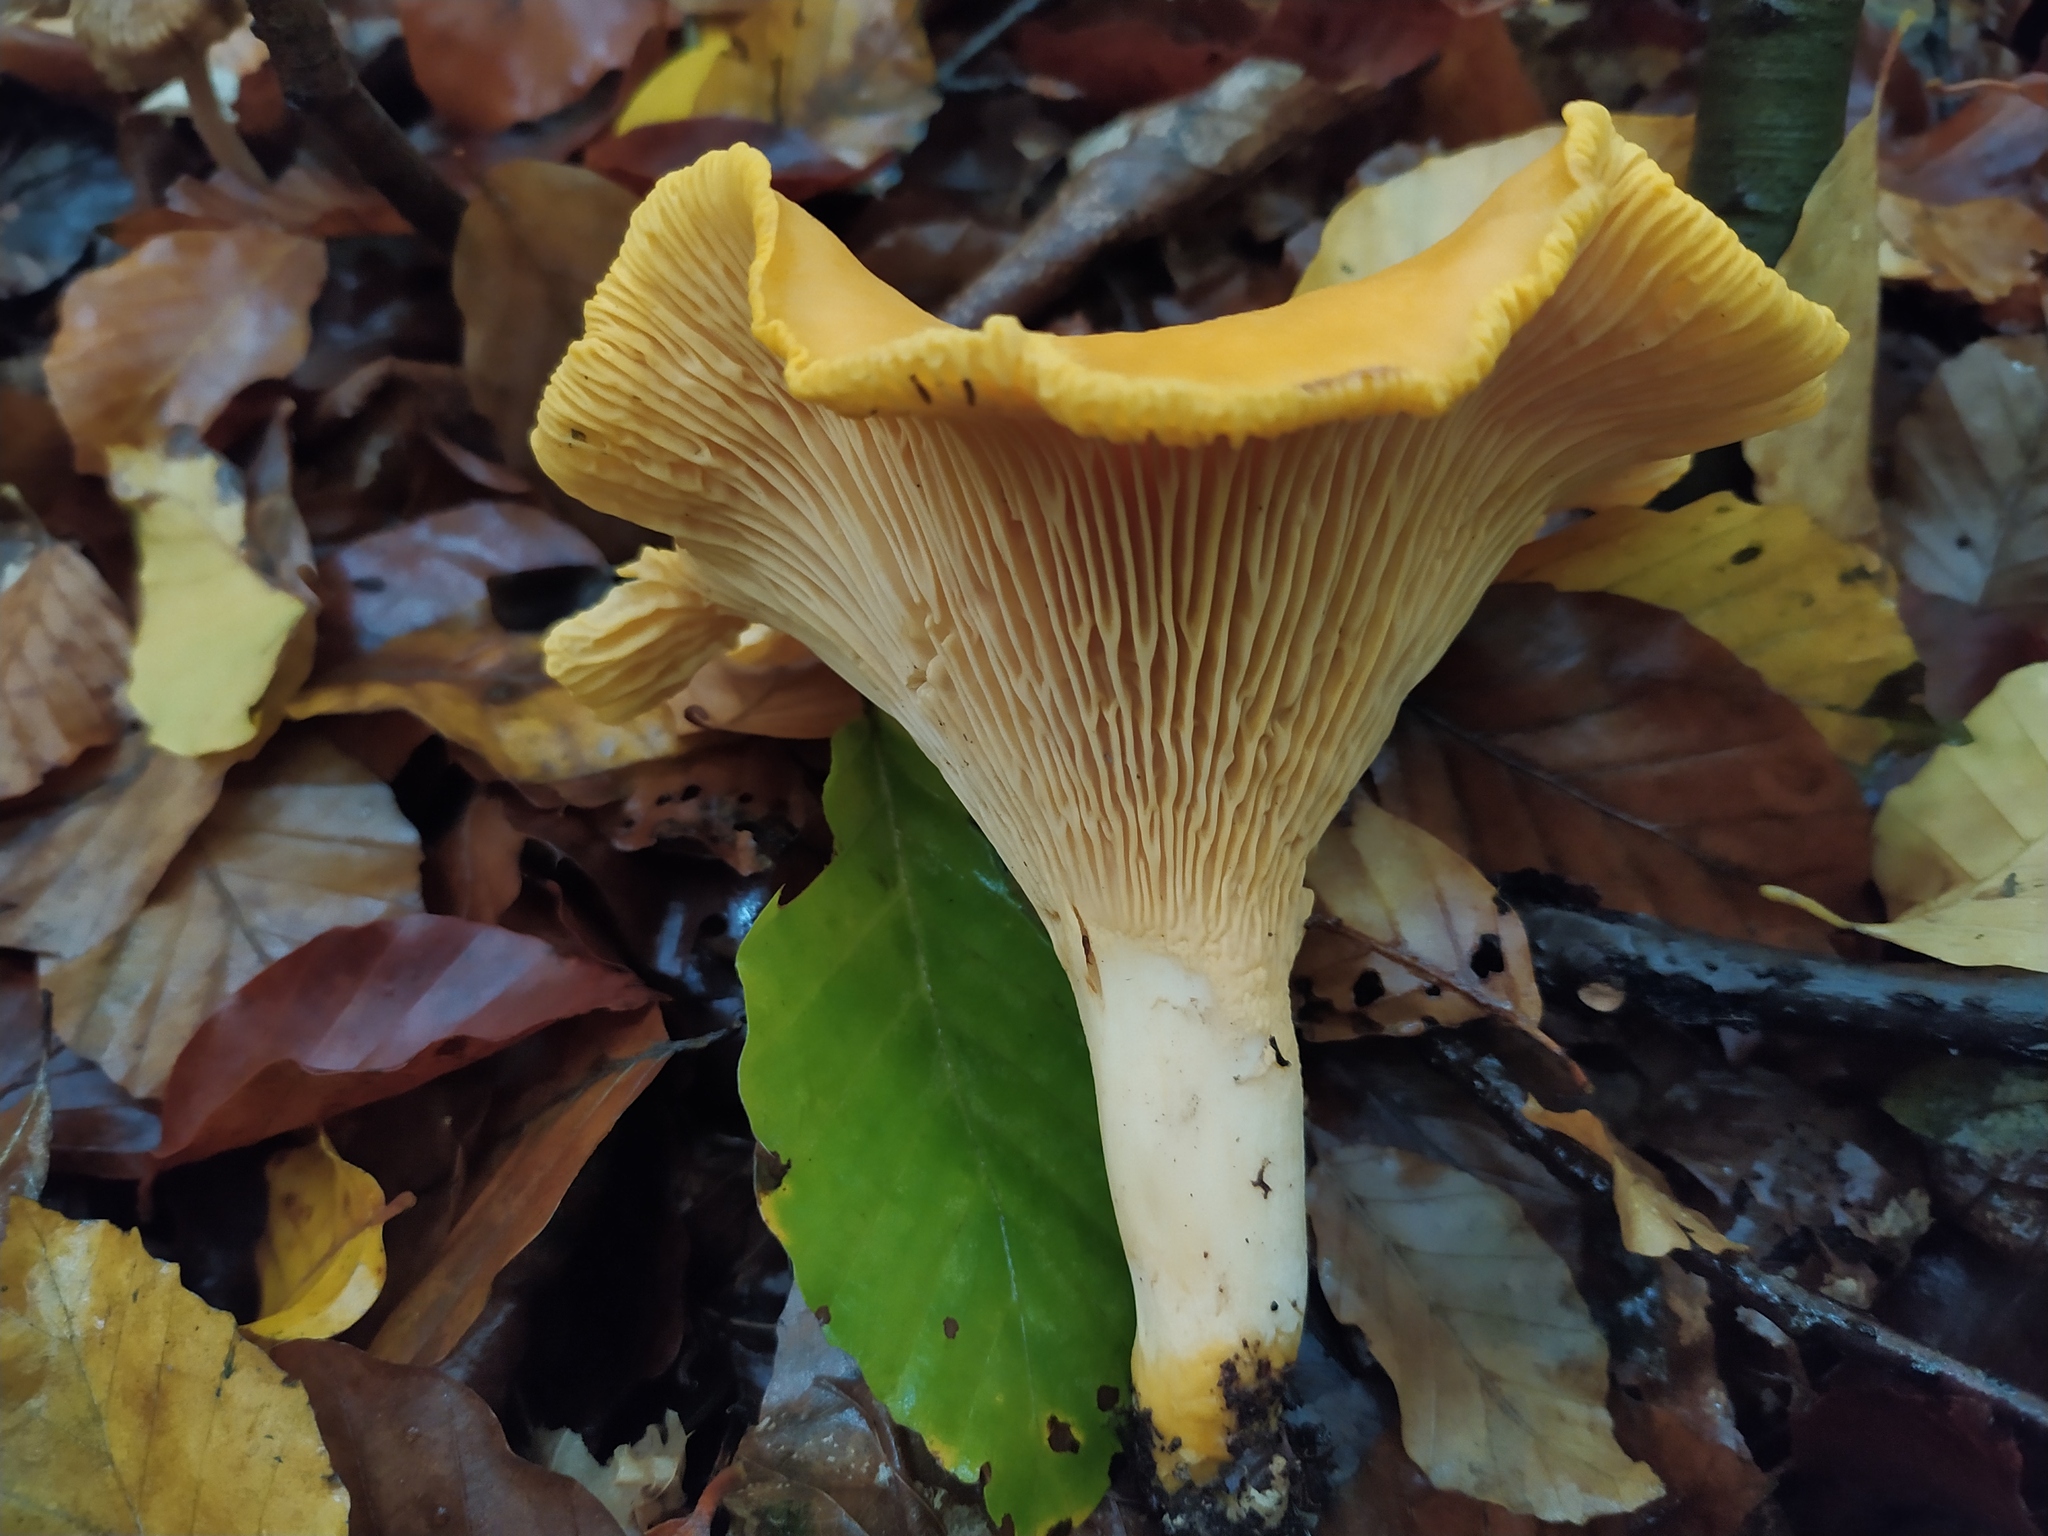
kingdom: Fungi
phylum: Basidiomycota
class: Agaricomycetes
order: Cantharellales
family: Hydnaceae
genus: Cantharellus
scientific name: Cantharellus cibarius
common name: Chanterelle
